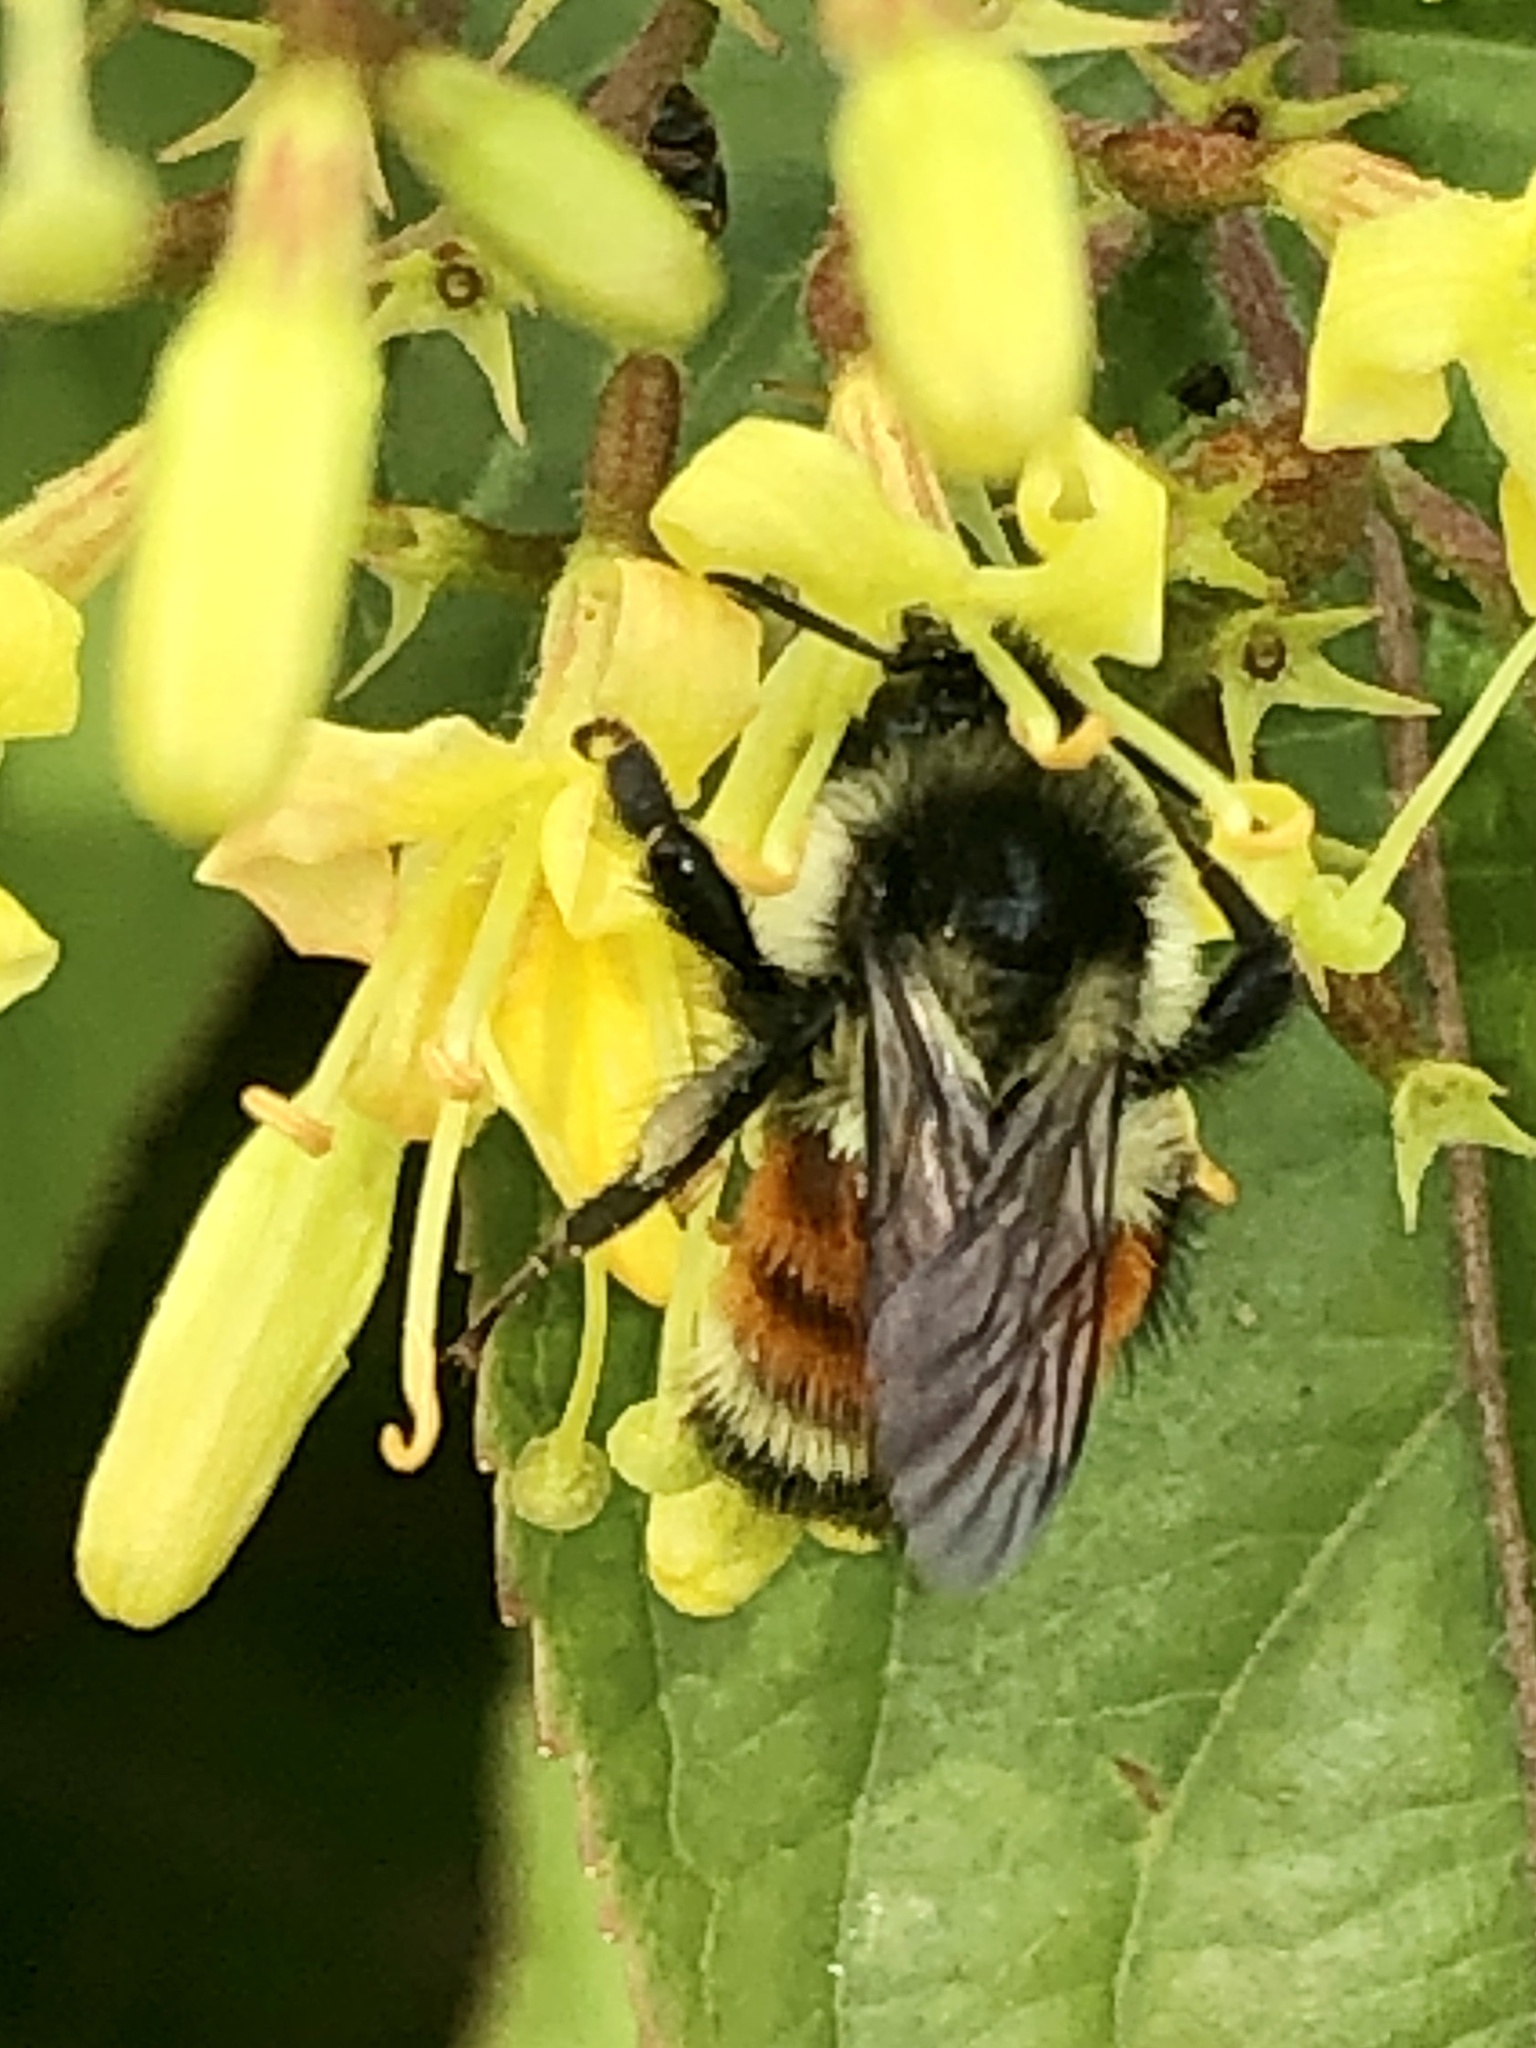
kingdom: Animalia
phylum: Arthropoda
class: Insecta
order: Hymenoptera
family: Apidae
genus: Bombus
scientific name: Bombus ternarius
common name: Tri-colored bumble bee
